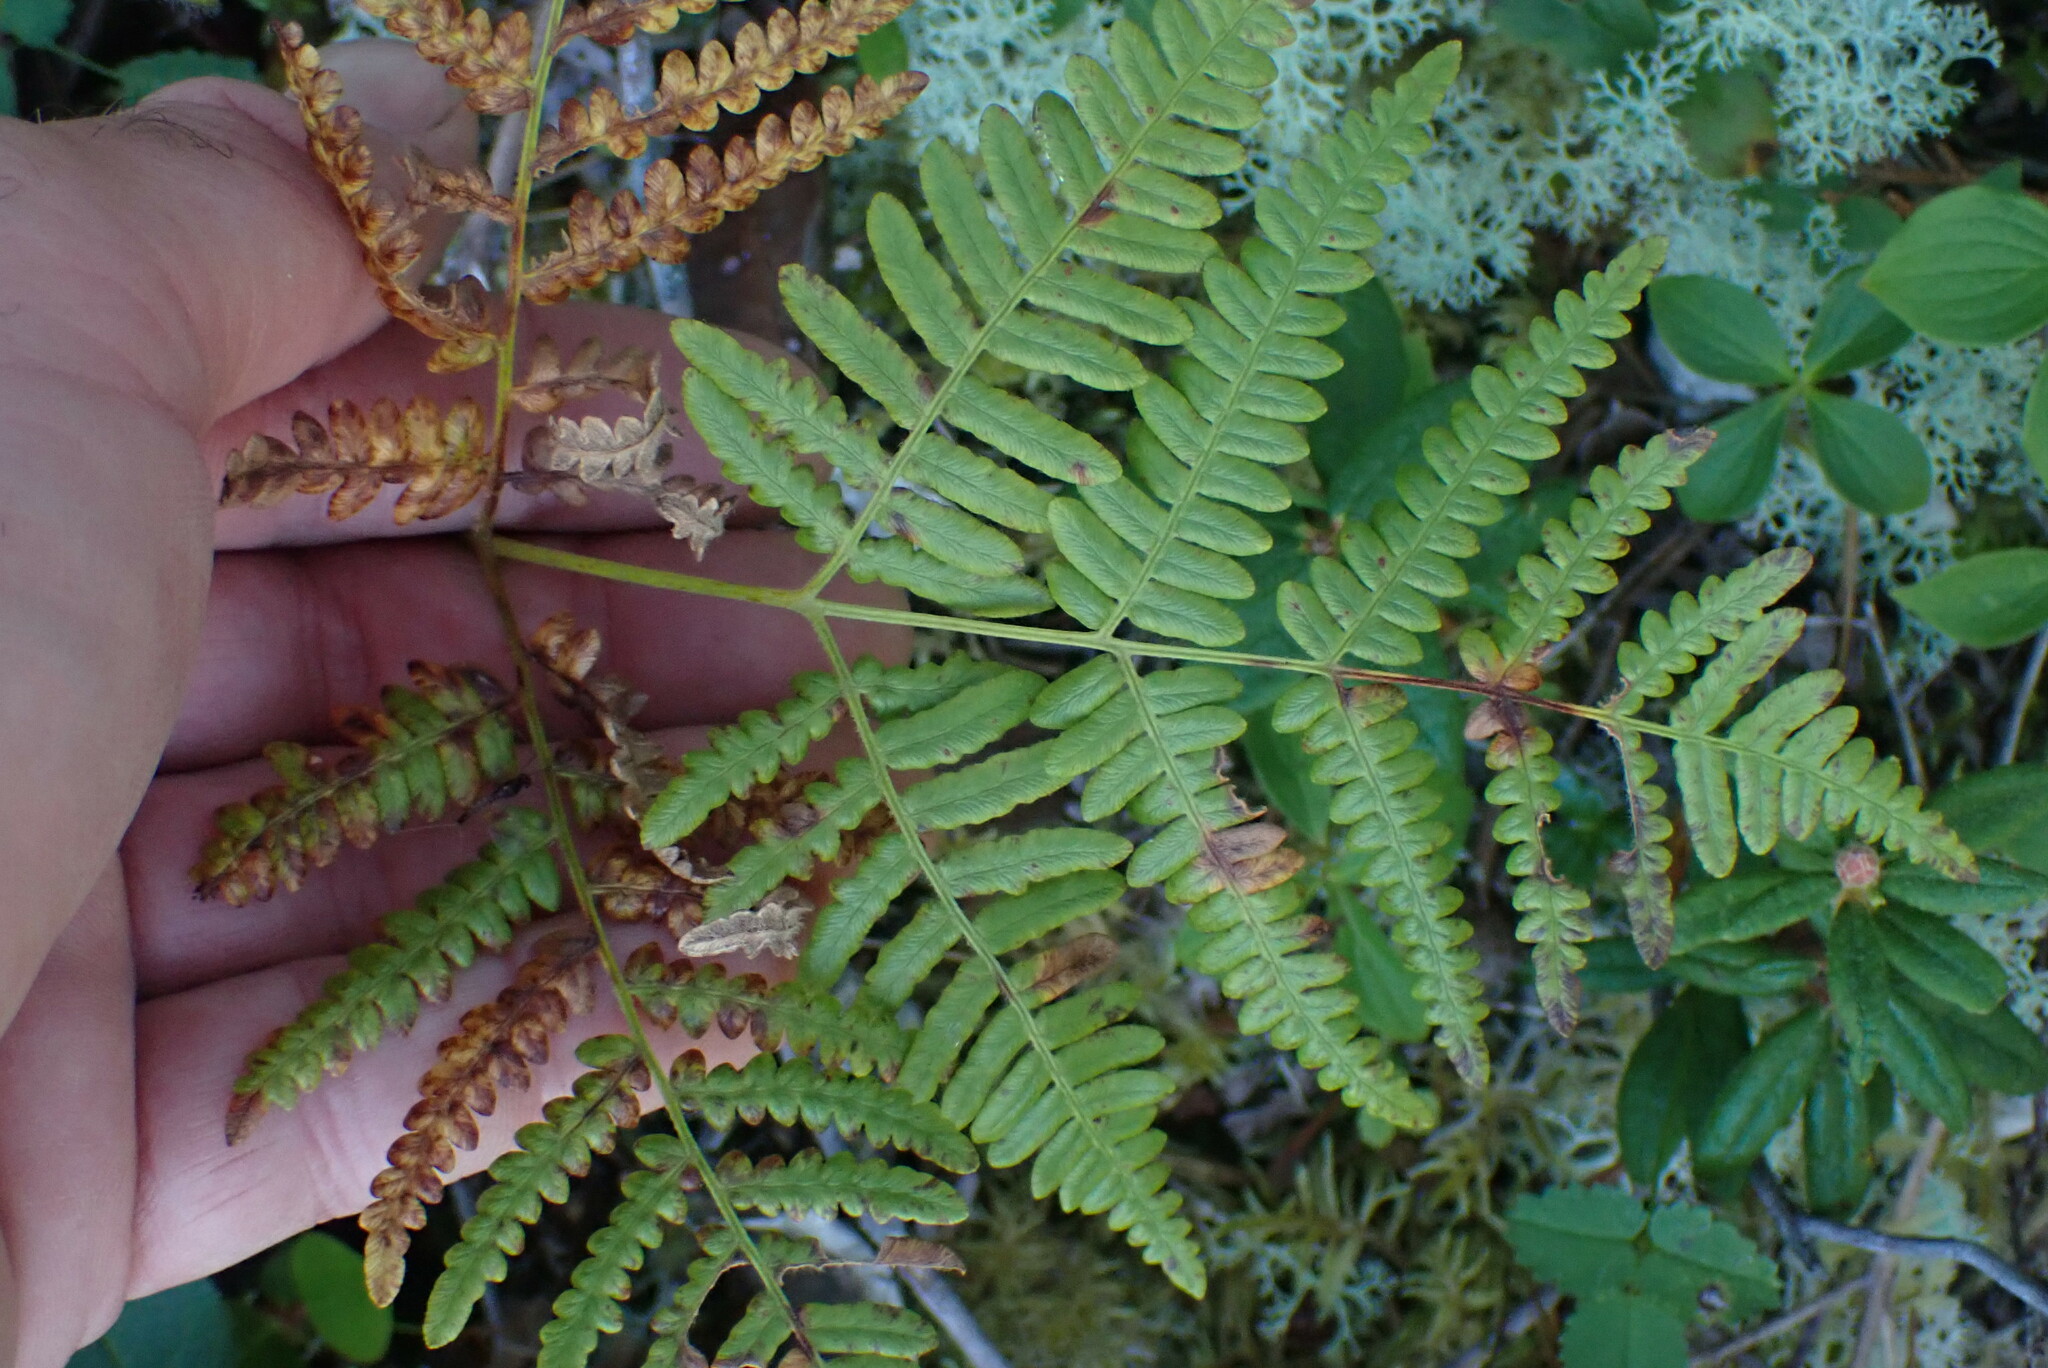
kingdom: Plantae
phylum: Tracheophyta
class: Polypodiopsida
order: Polypodiales
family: Dennstaedtiaceae
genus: Pteridium
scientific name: Pteridium aquilinum
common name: Bracken
